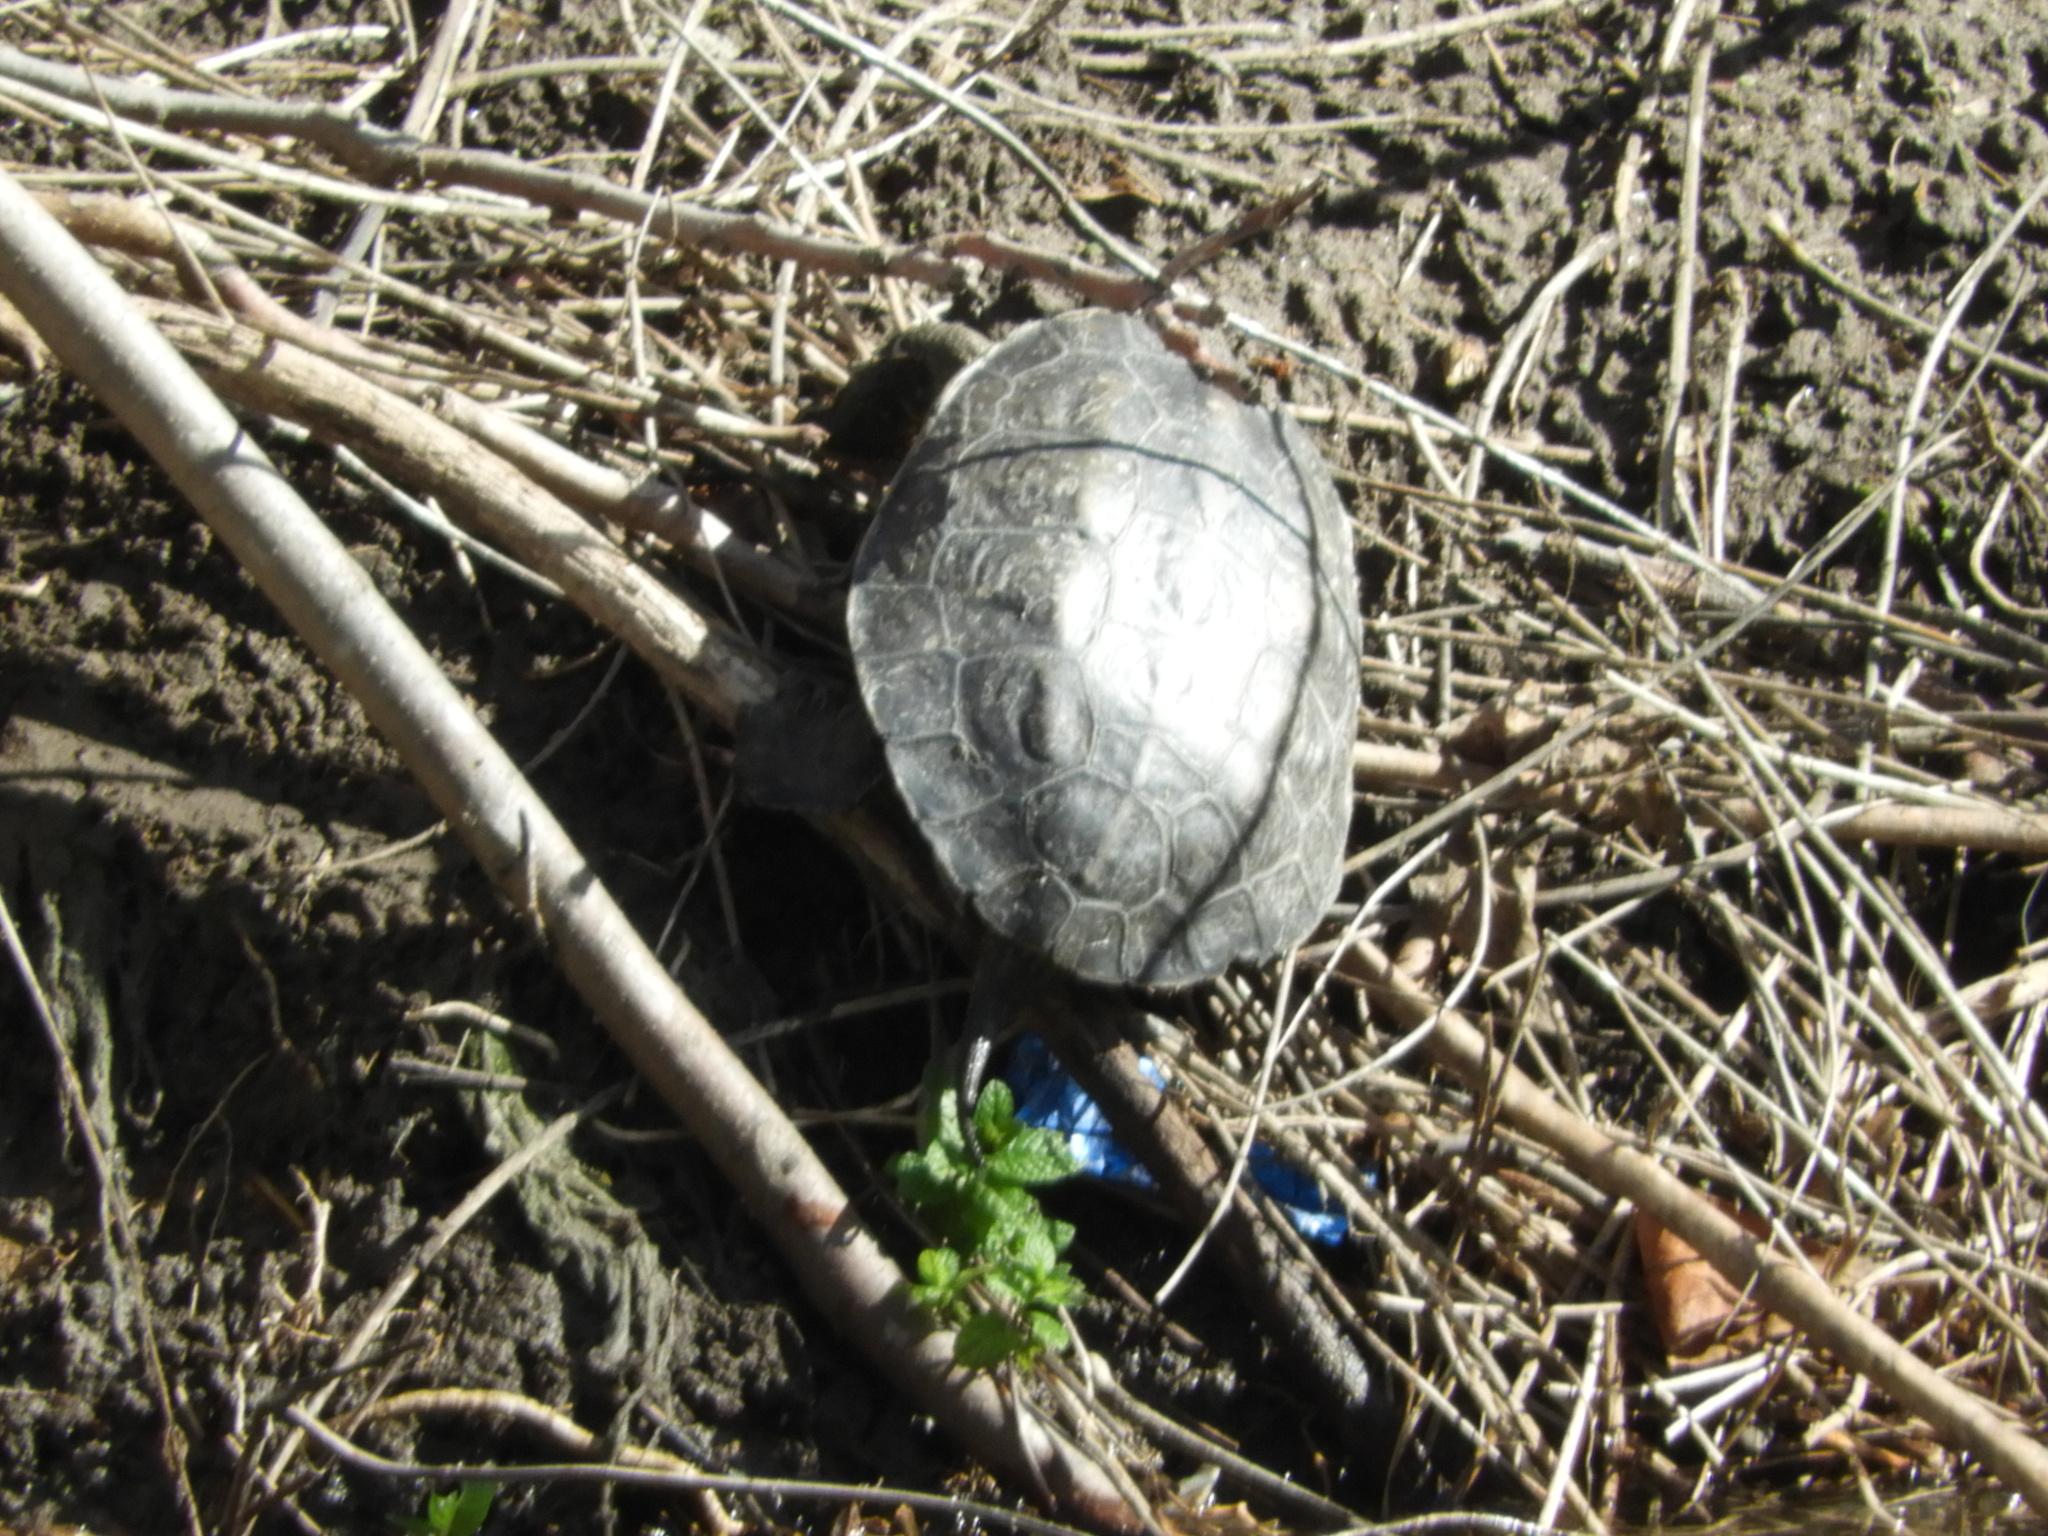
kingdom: Animalia
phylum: Chordata
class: Testudines
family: Geoemydidae
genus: Mauremys
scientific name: Mauremys leprosa
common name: Mediterranean pond turtle
